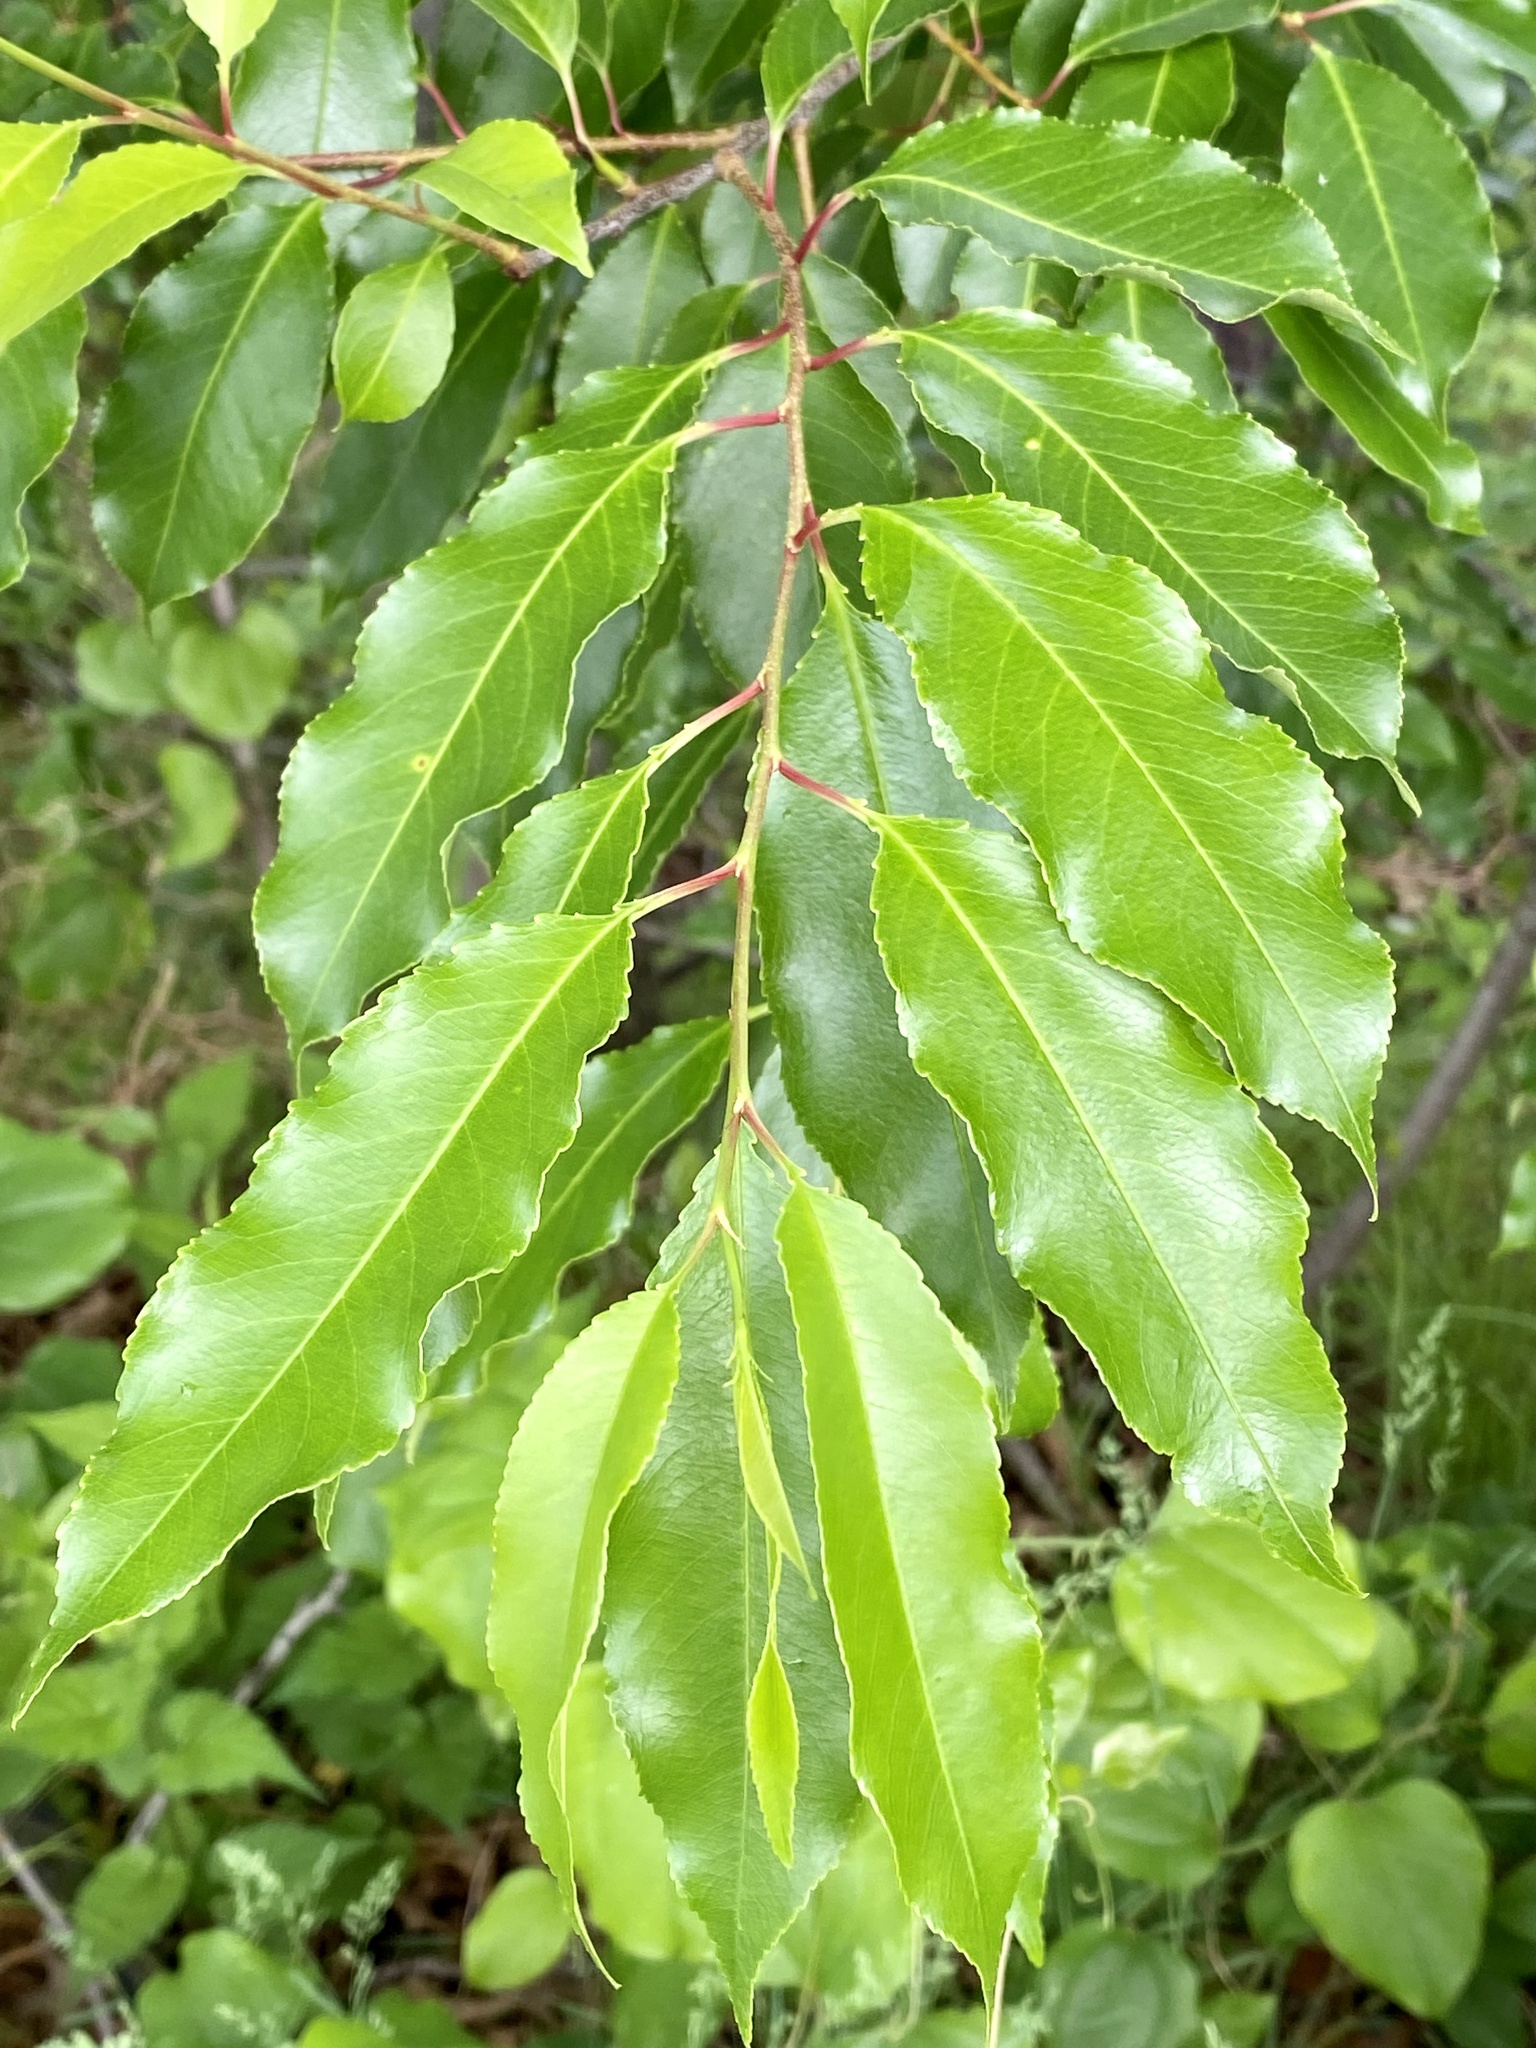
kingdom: Plantae
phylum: Tracheophyta
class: Magnoliopsida
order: Rosales
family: Rosaceae
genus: Prunus
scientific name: Prunus serotina
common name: Black cherry
